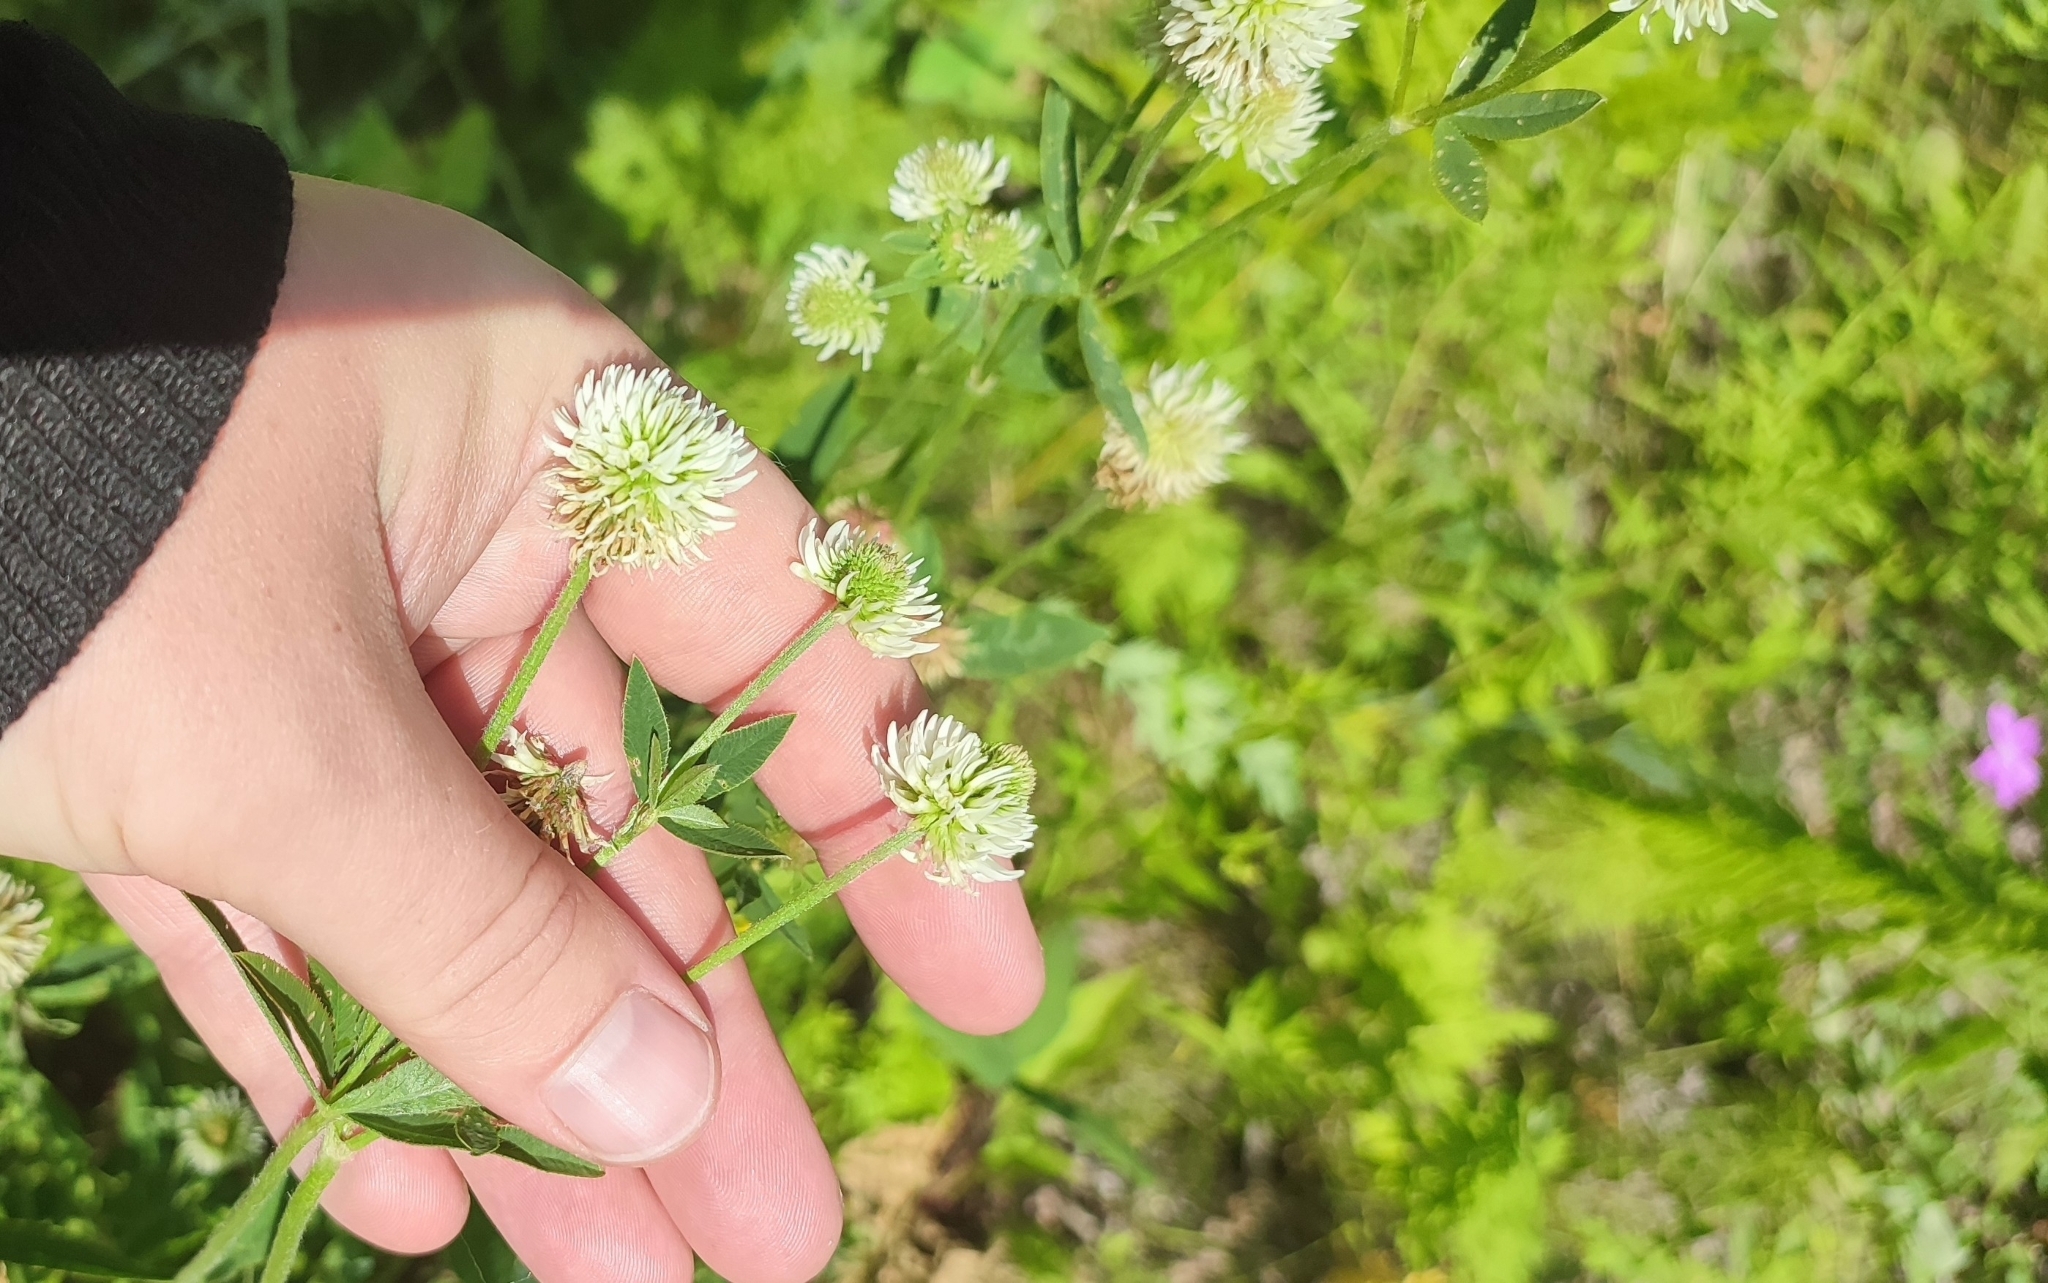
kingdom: Plantae
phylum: Tracheophyta
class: Magnoliopsida
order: Fabales
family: Fabaceae
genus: Trifolium
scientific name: Trifolium montanum
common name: Mountain clover
